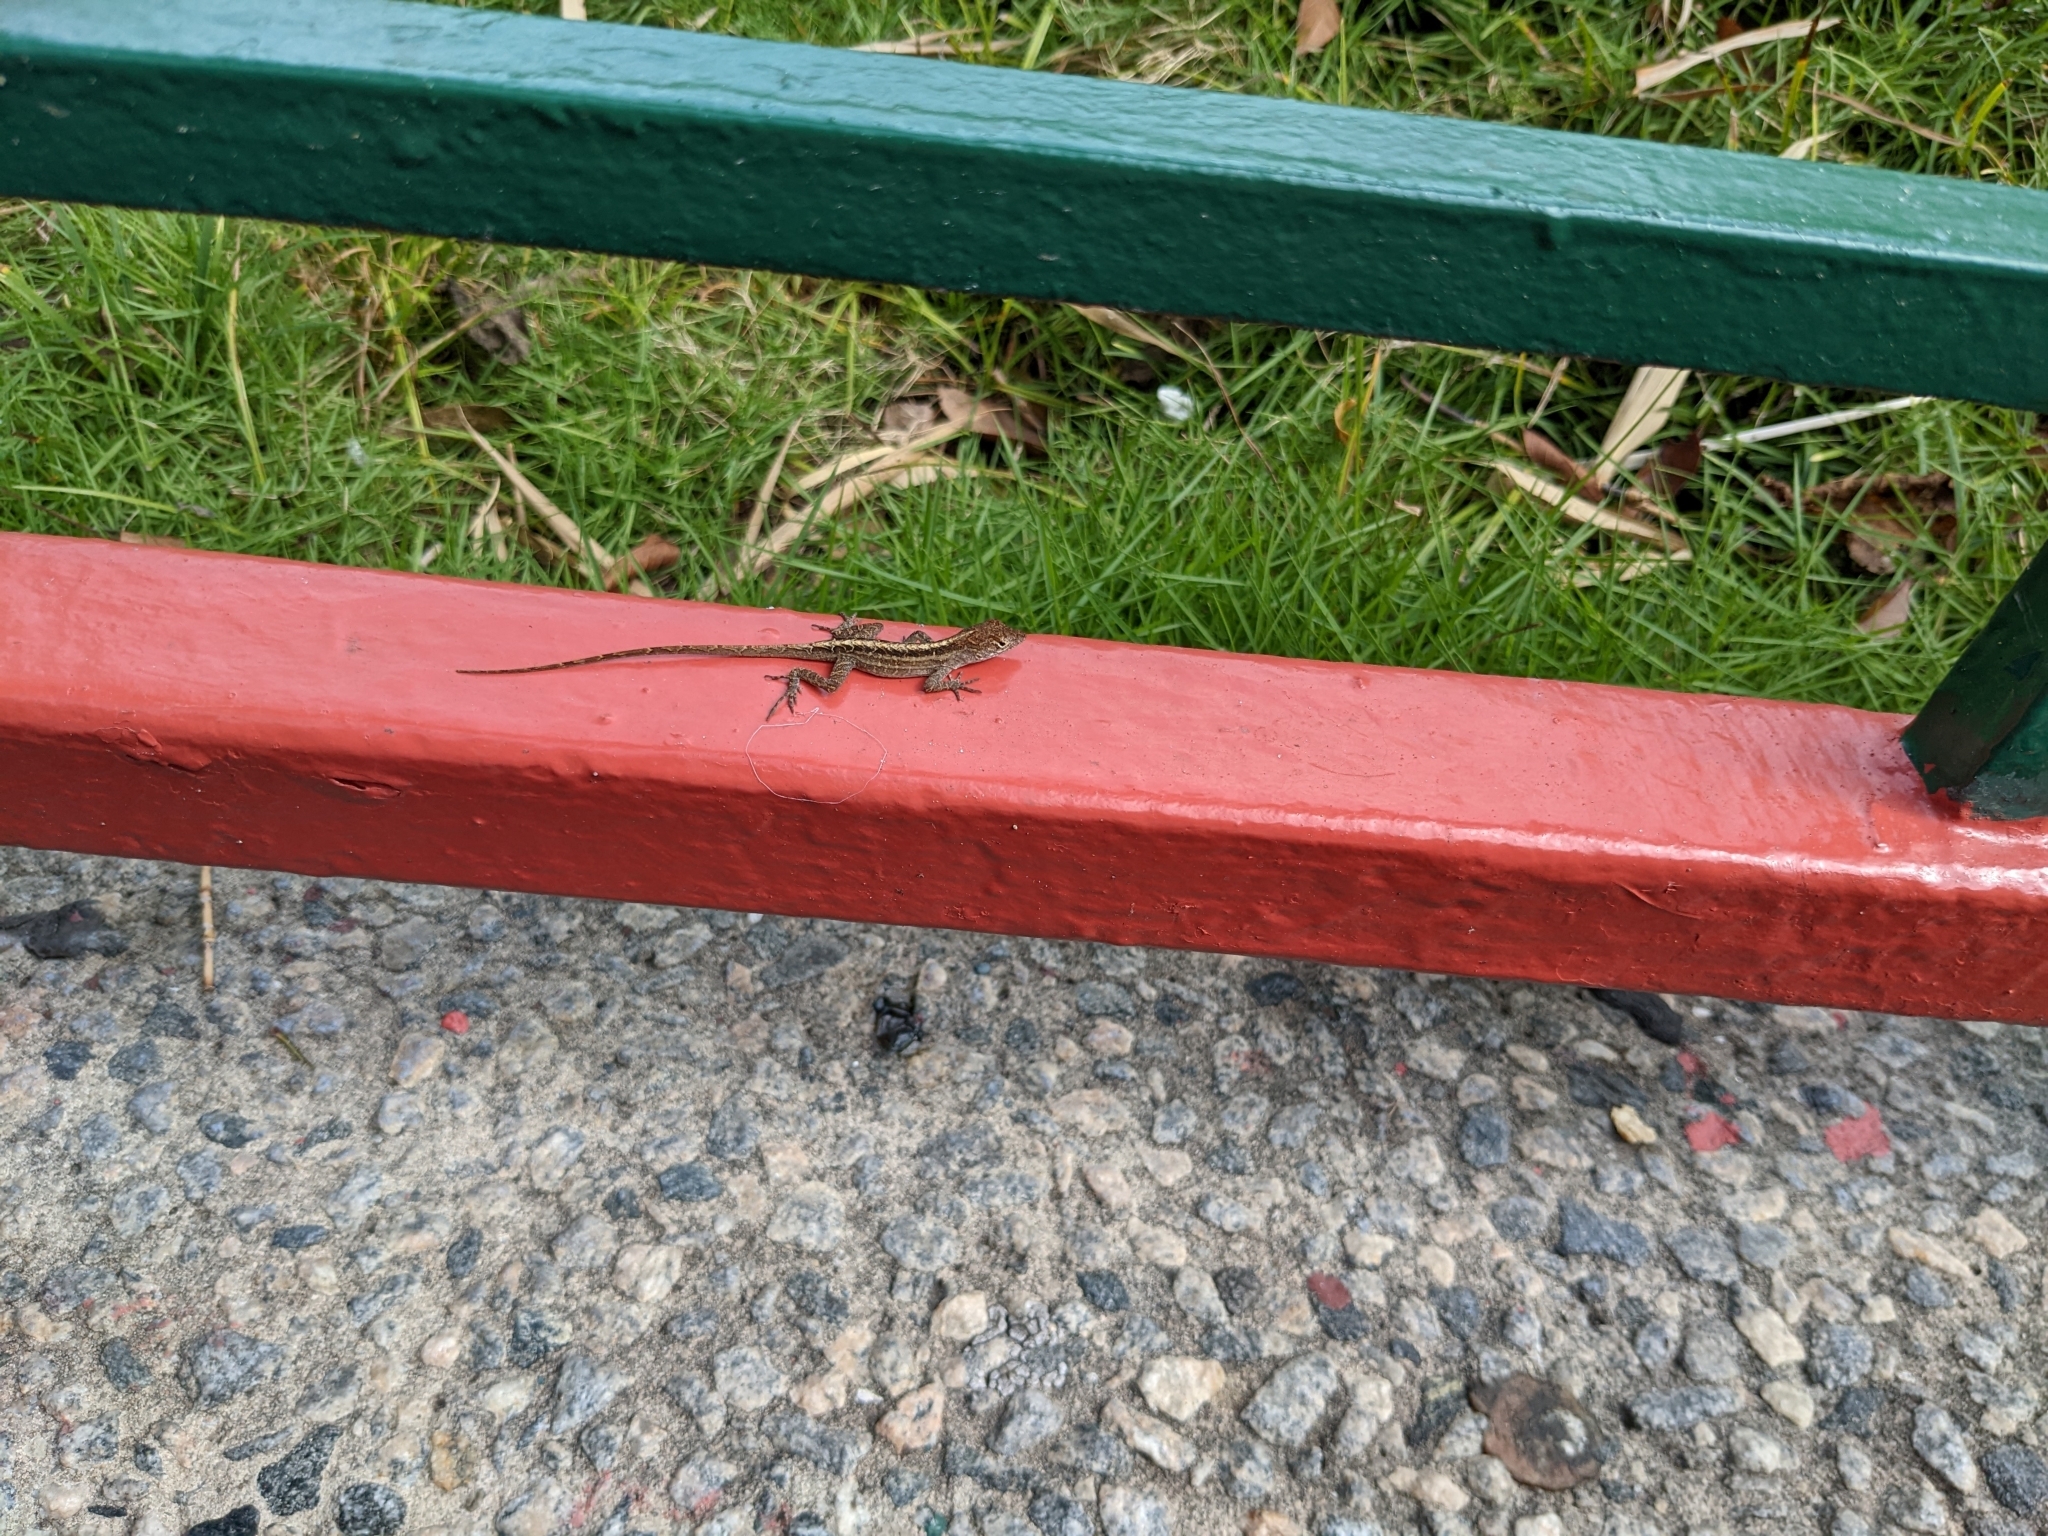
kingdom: Animalia
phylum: Chordata
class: Squamata
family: Dactyloidae
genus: Anolis
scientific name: Anolis sagrei
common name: Brown anole
